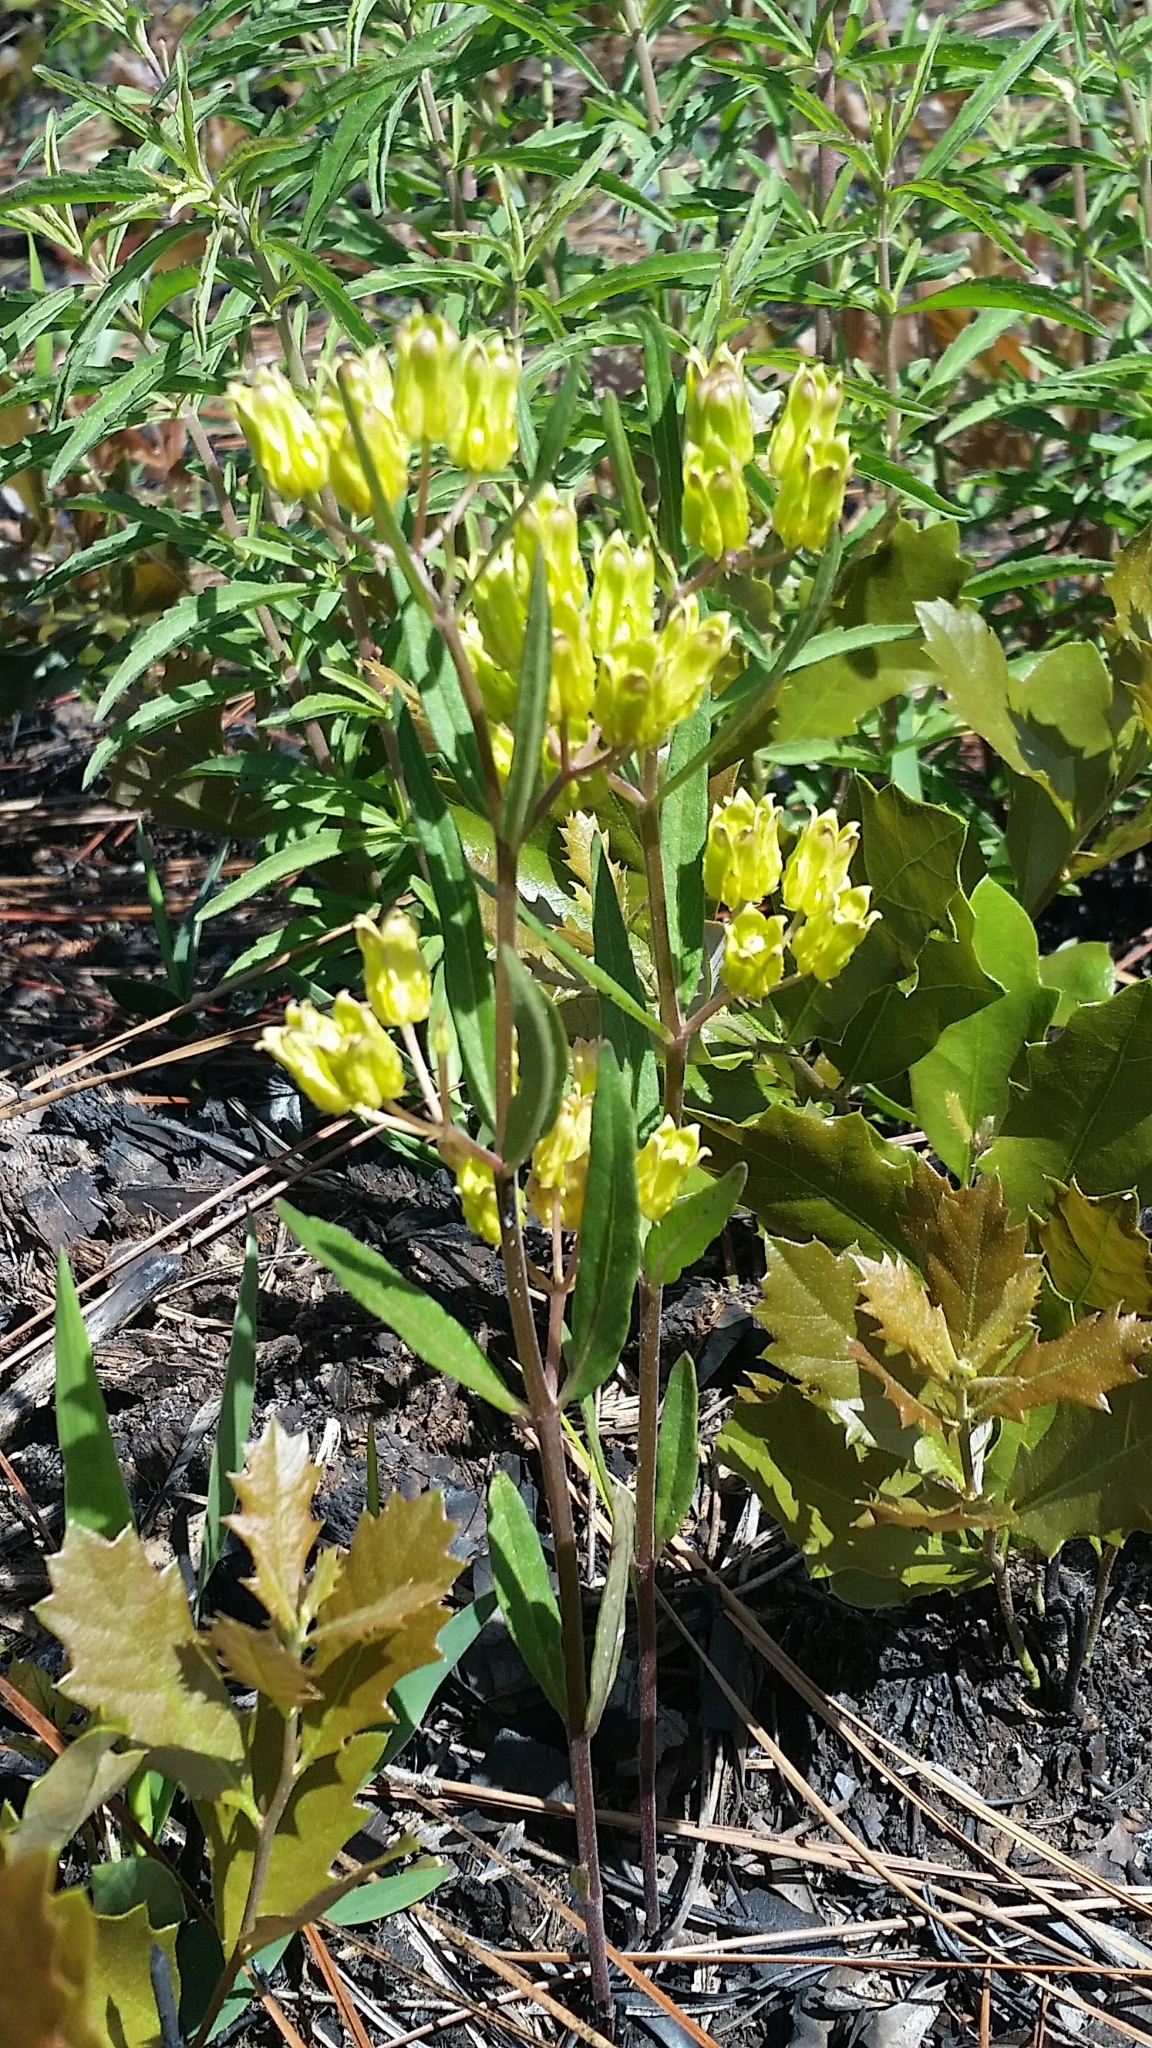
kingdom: Plantae
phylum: Tracheophyta
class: Magnoliopsida
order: Gentianales
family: Apocynaceae
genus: Asclepias
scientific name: Asclepias pedicellata
